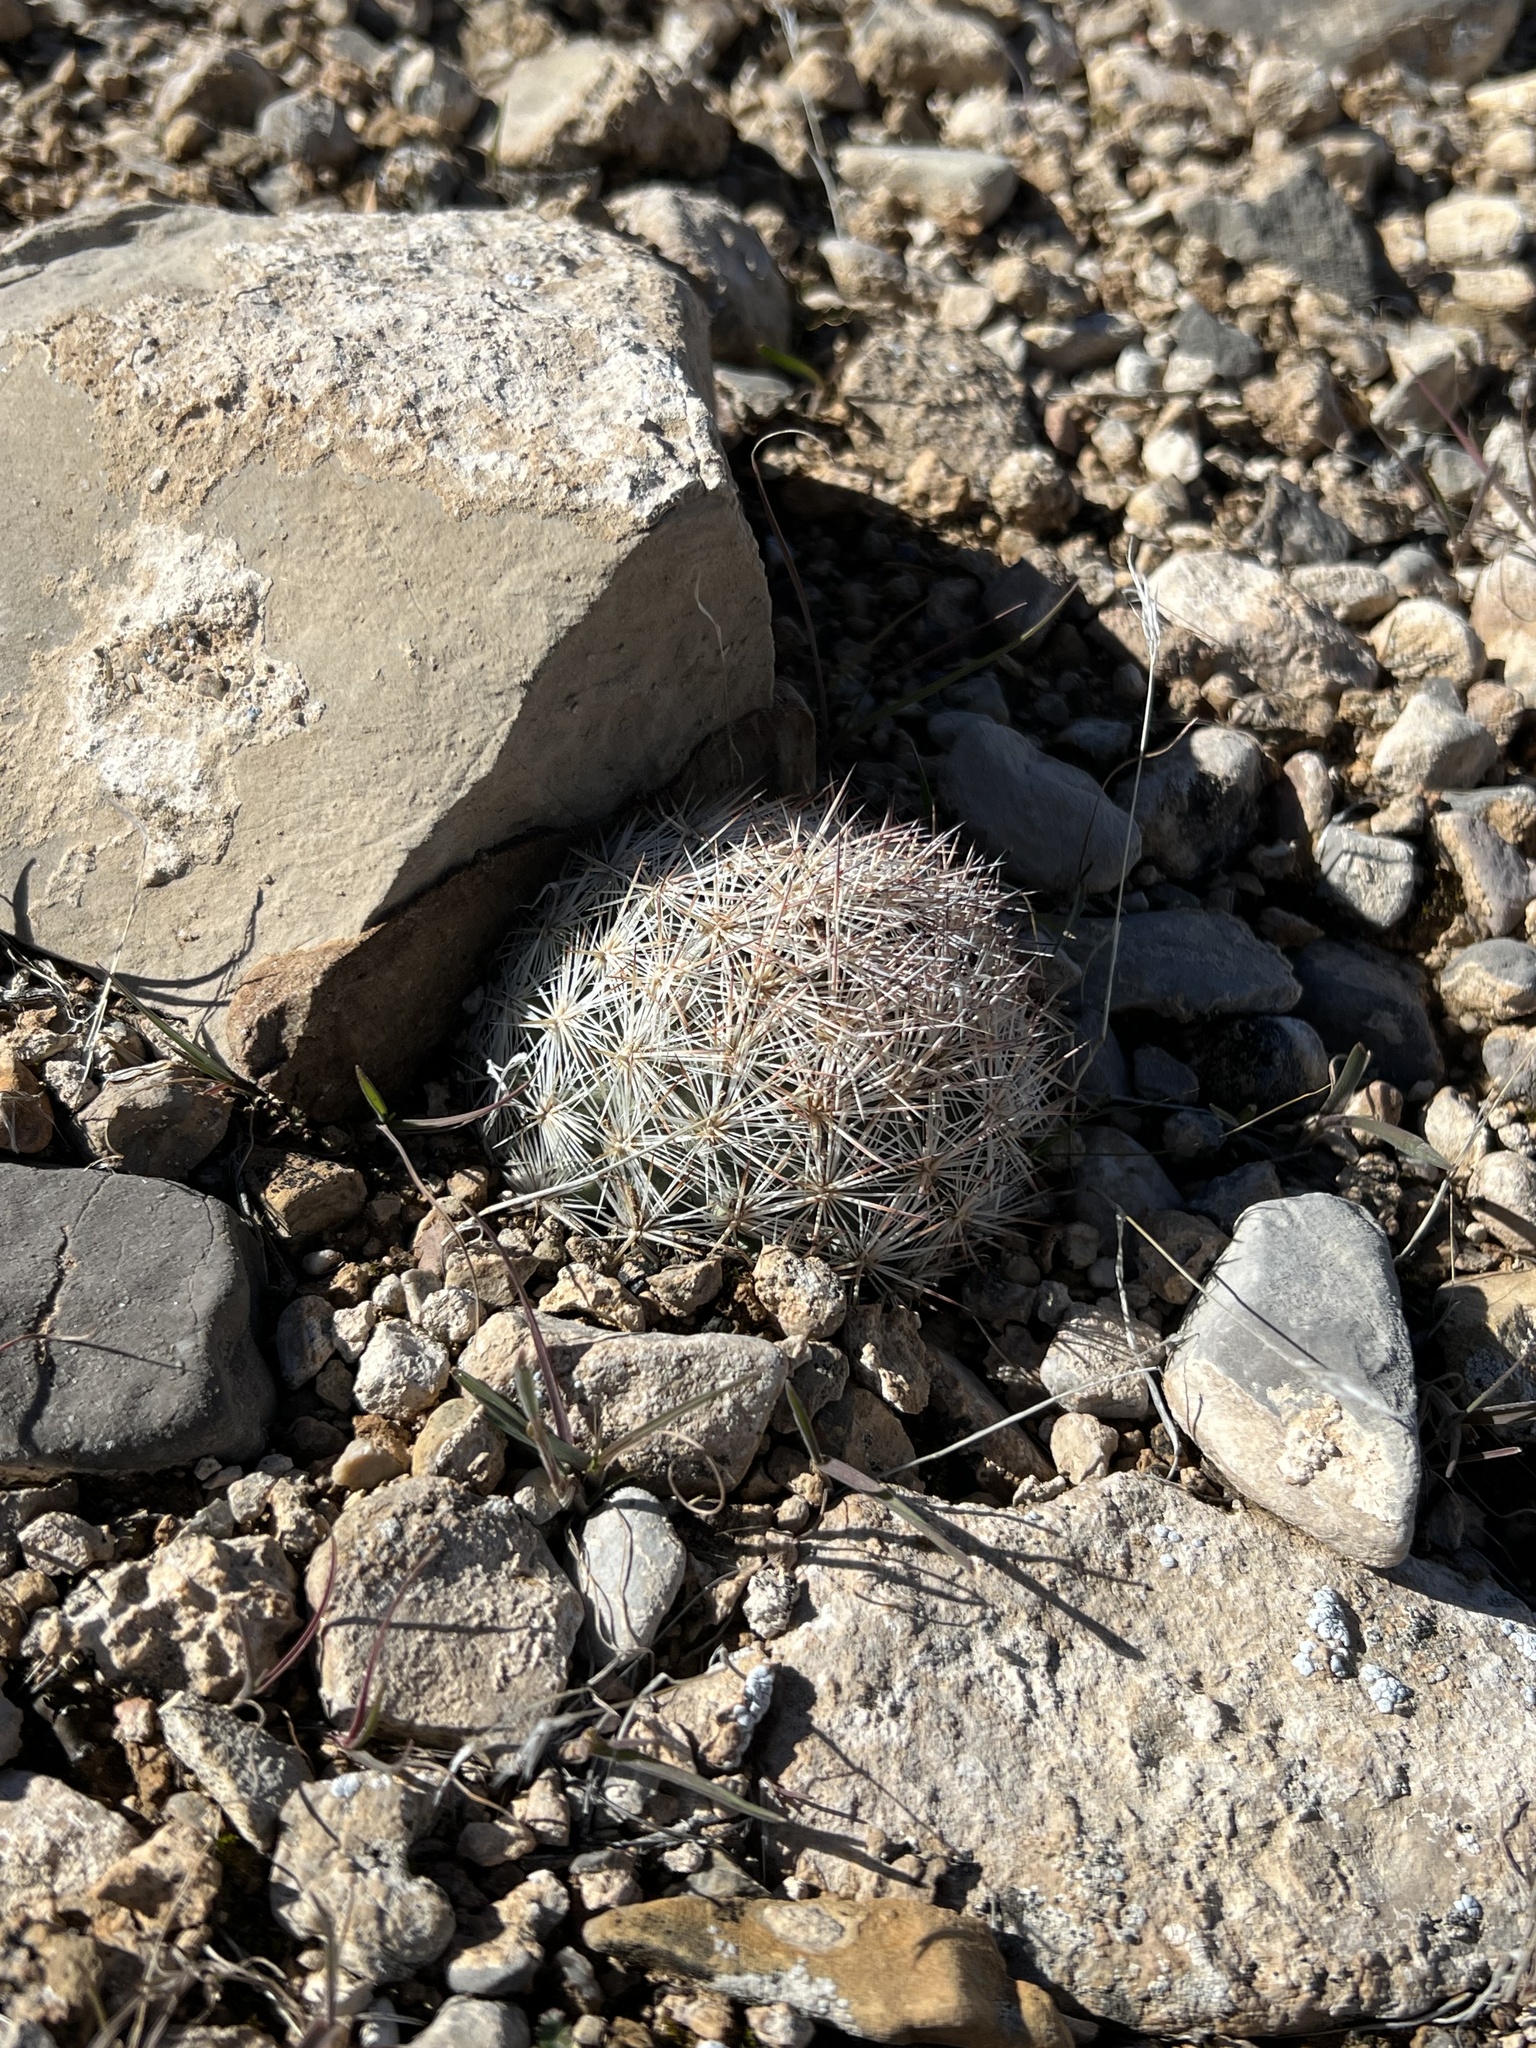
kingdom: Plantae
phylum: Tracheophyta
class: Magnoliopsida
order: Caryophyllales
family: Cactaceae
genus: Pelecyphora
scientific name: Pelecyphora dasyacantha
